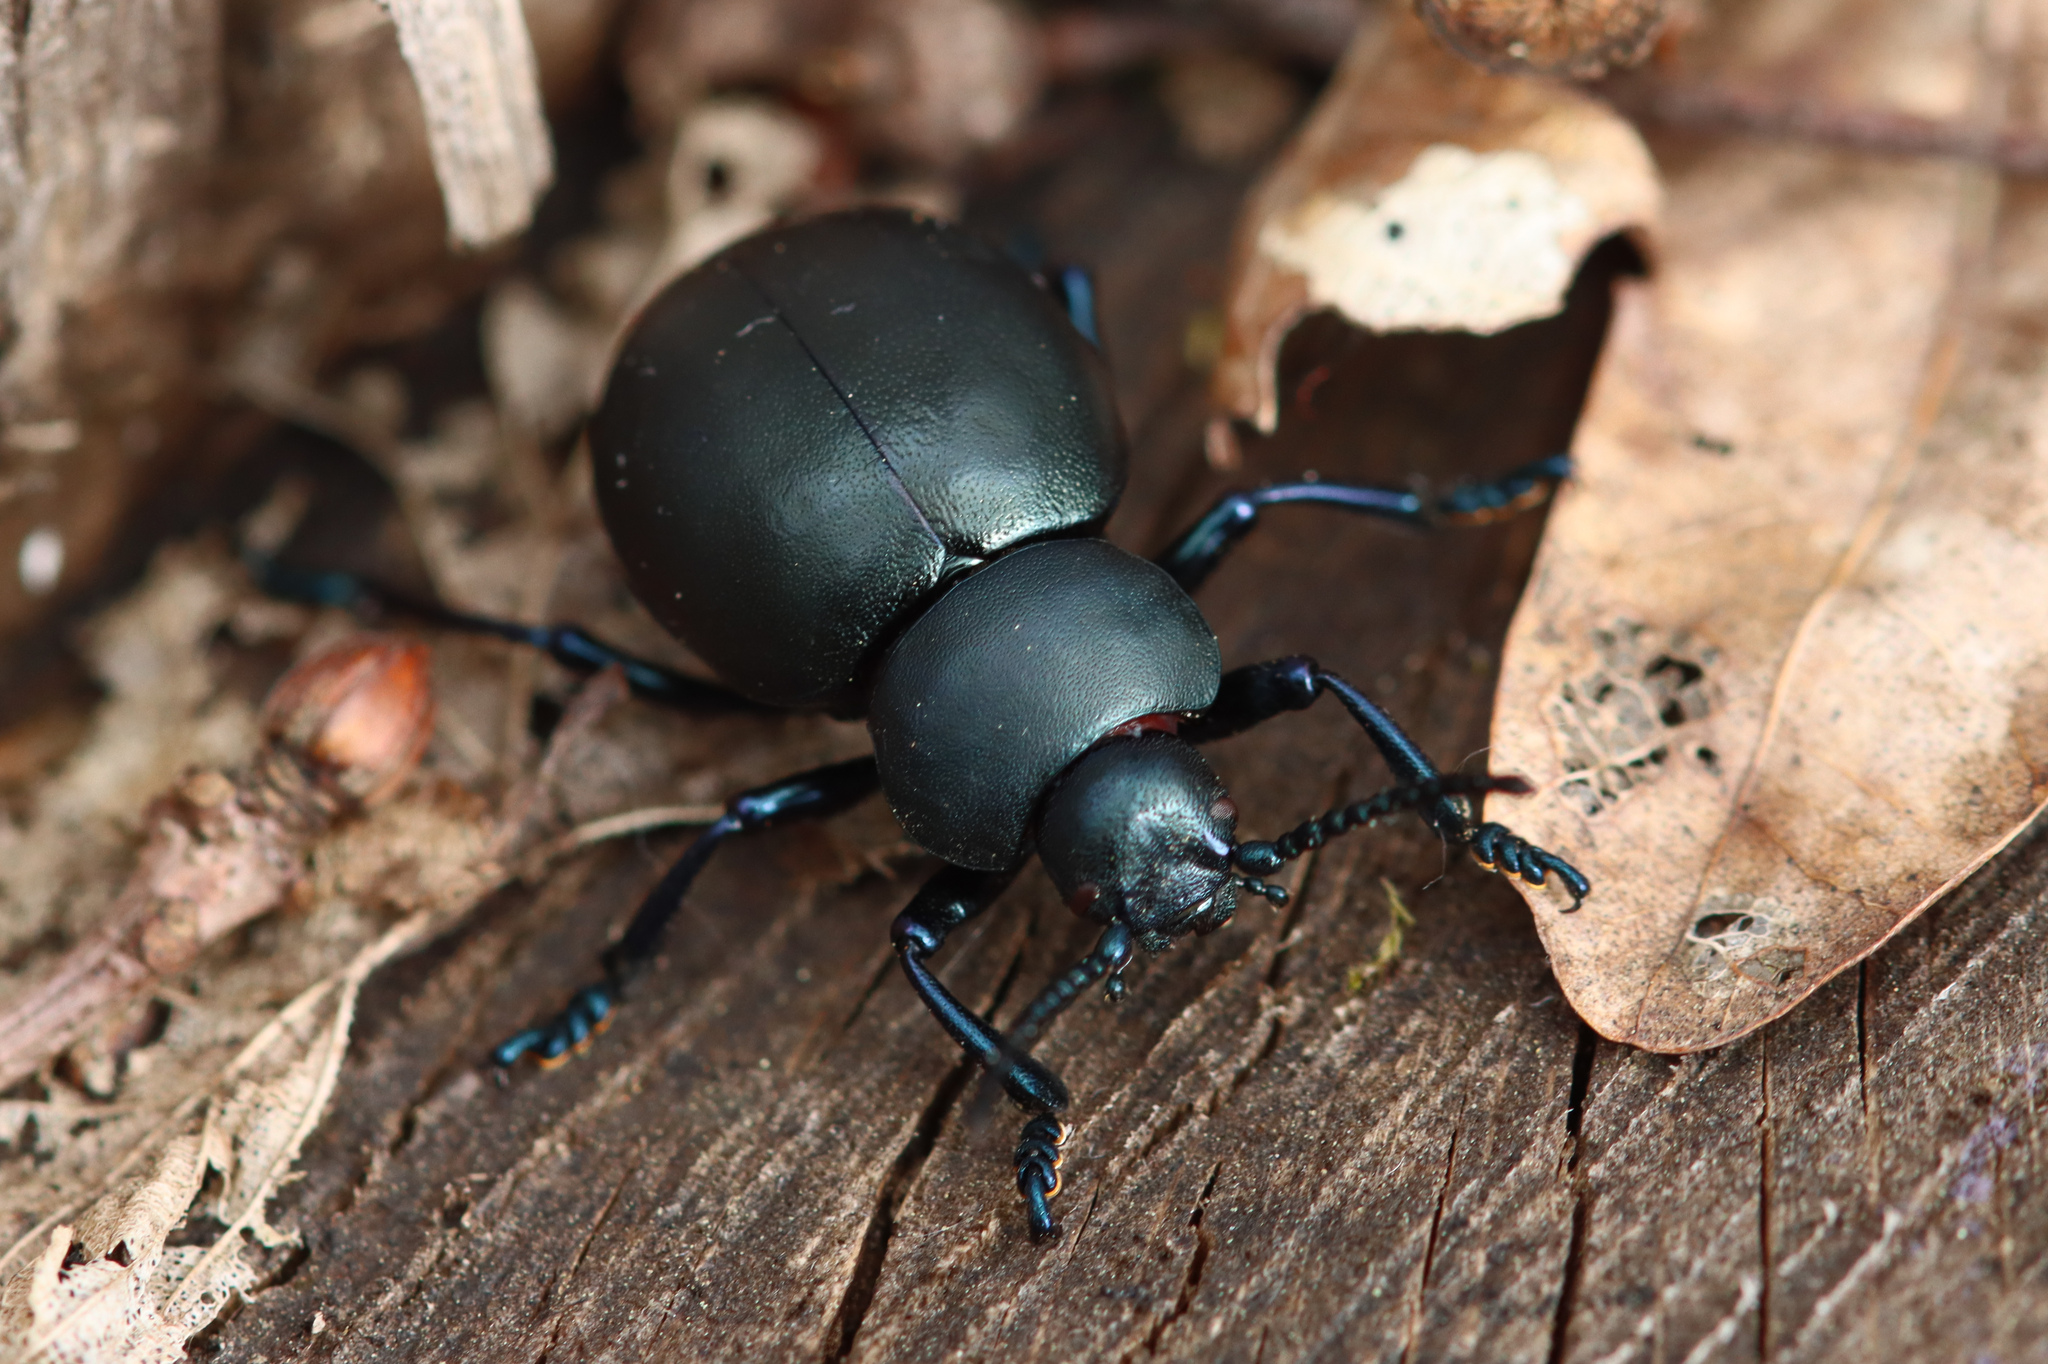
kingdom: Animalia
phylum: Arthropoda
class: Insecta
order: Coleoptera
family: Chrysomelidae
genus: Timarcha
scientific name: Timarcha tenebricosa
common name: Bloody-nosed beetle
